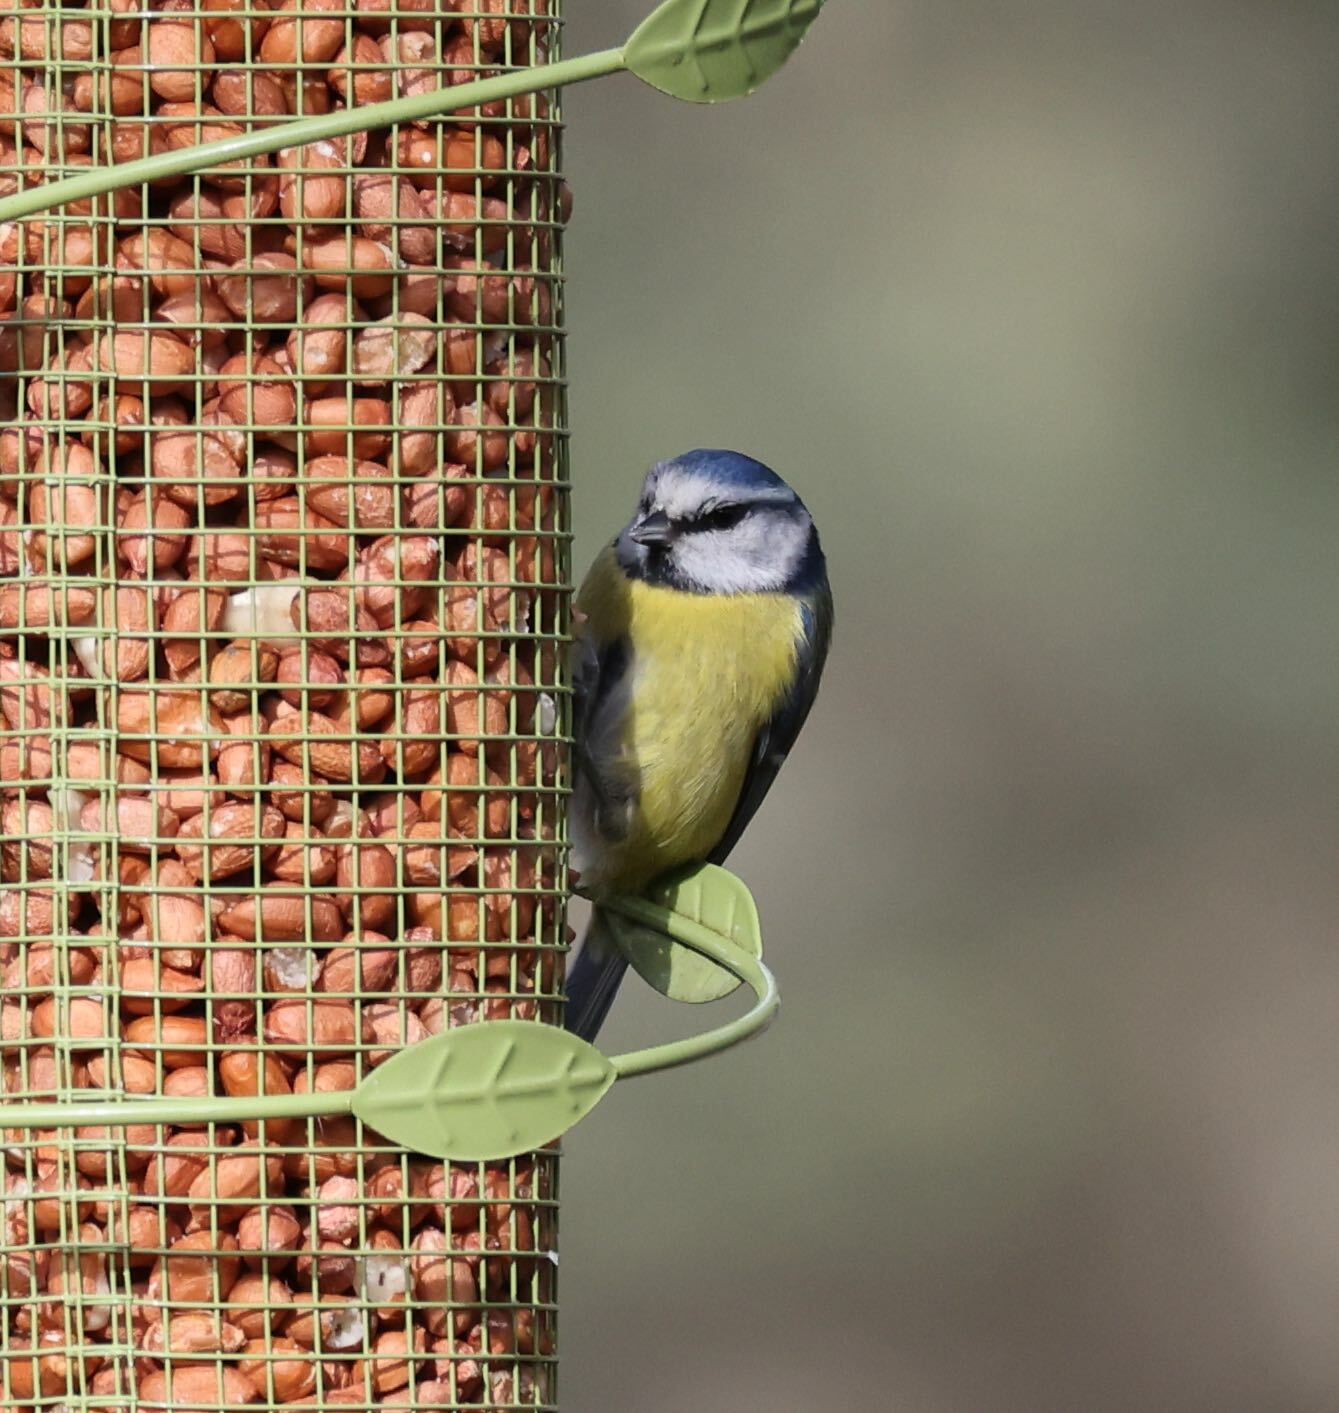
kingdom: Animalia
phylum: Chordata
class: Aves
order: Passeriformes
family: Paridae
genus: Cyanistes
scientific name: Cyanistes caeruleus
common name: Eurasian blue tit
